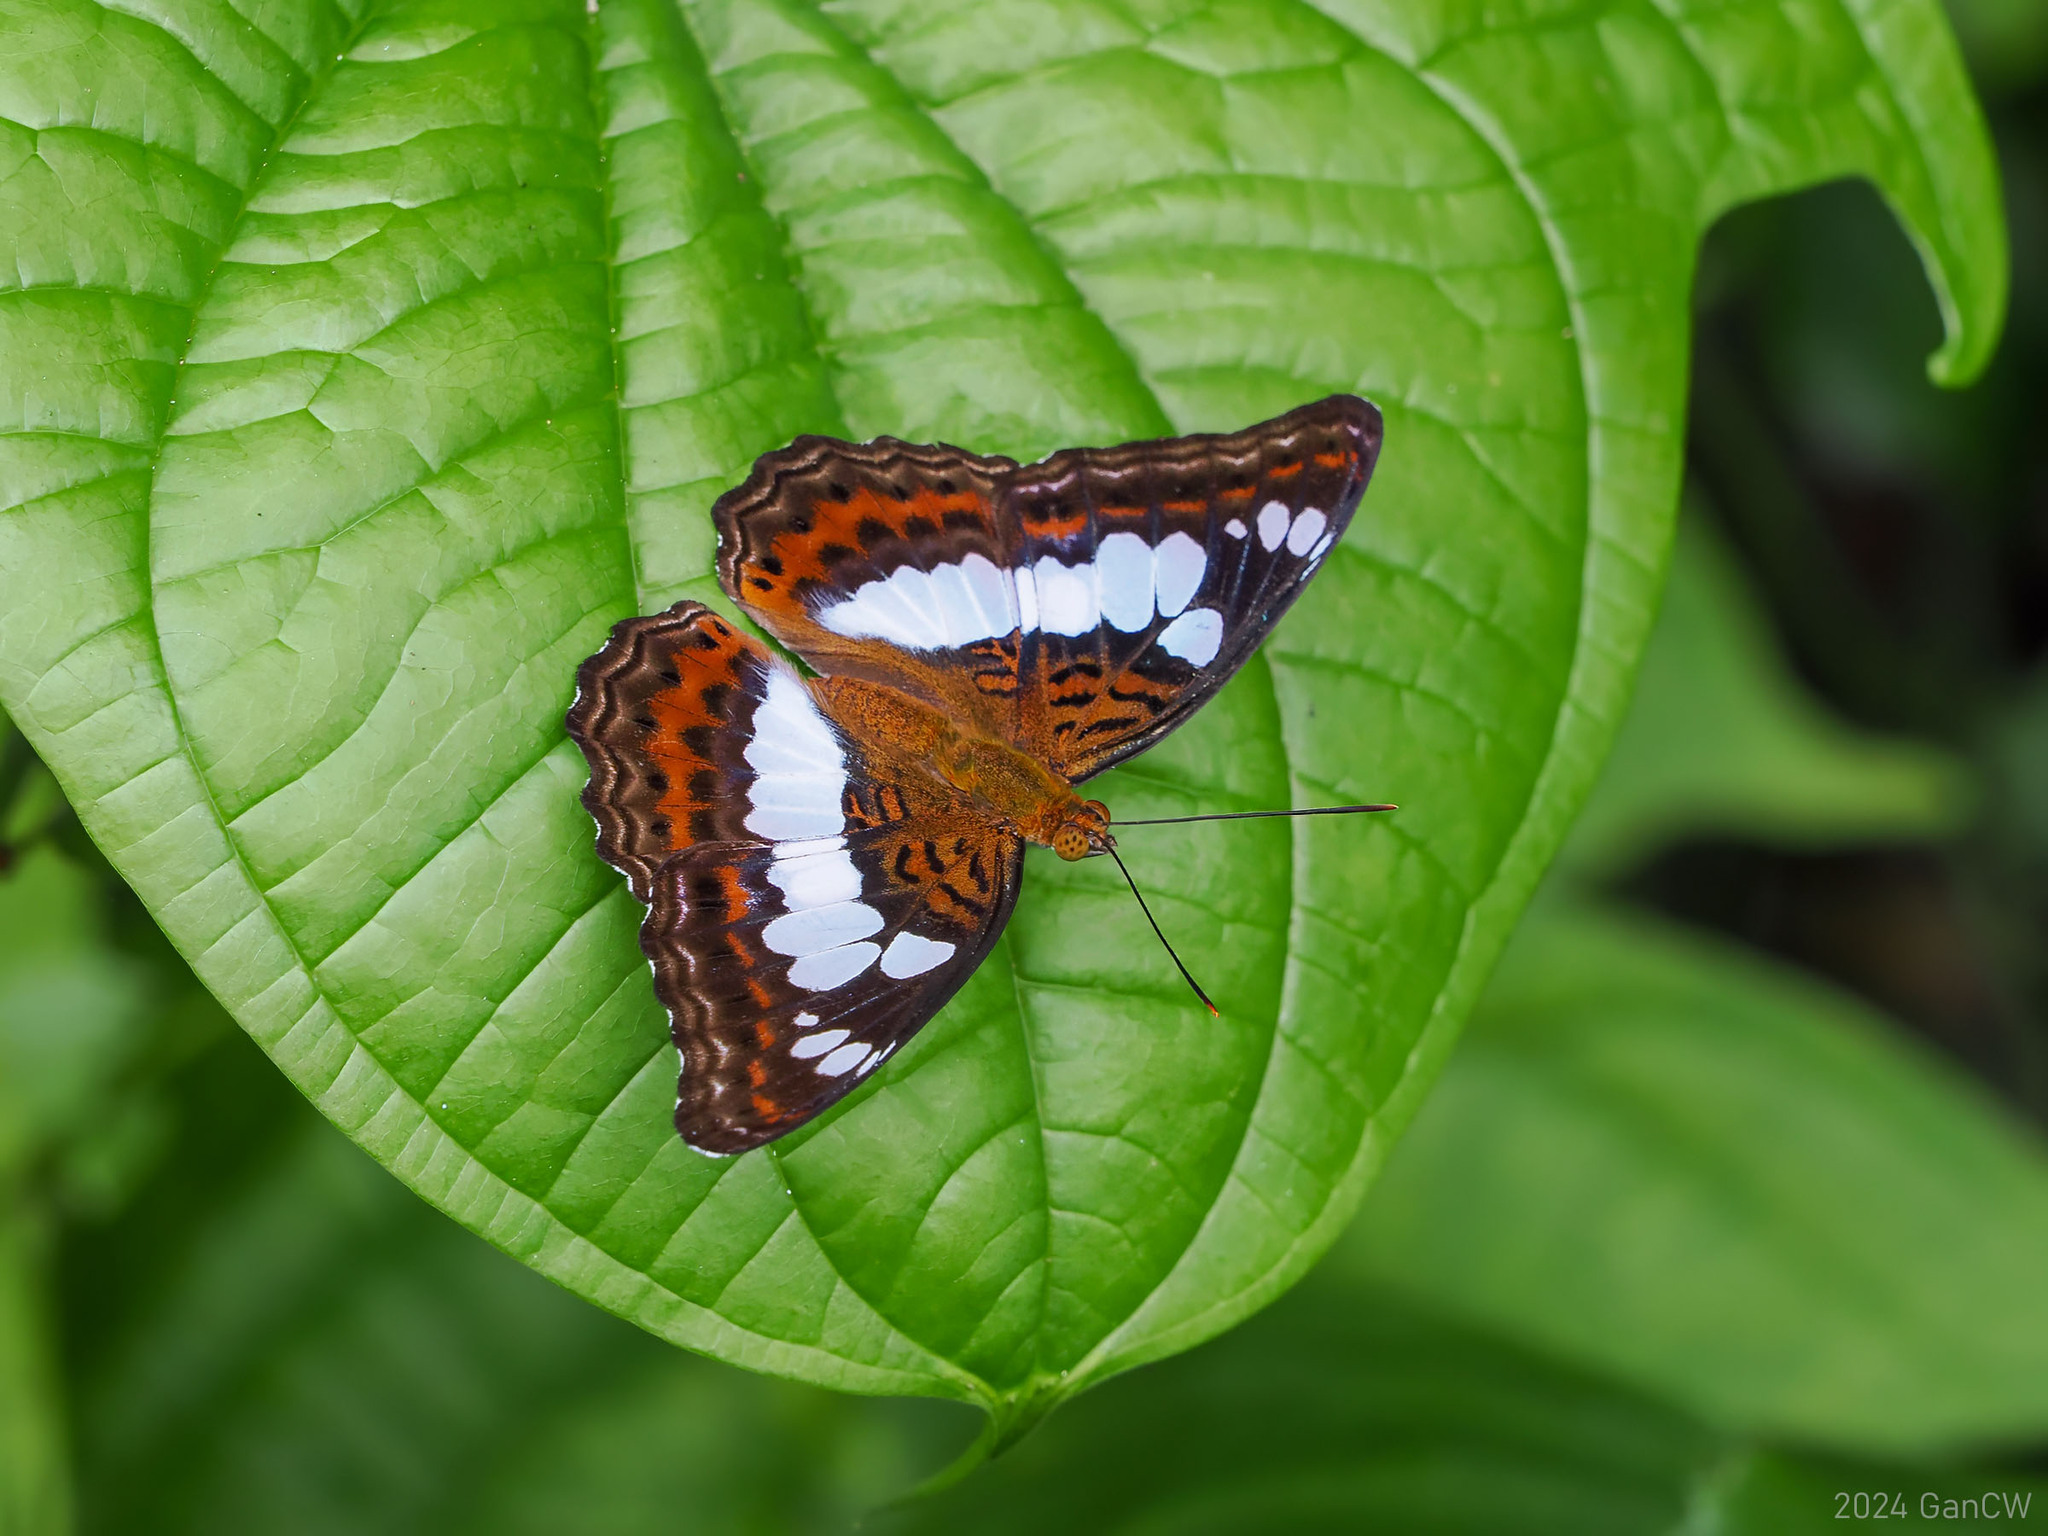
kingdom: Animalia
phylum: Arthropoda
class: Insecta
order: Lepidoptera
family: Nymphalidae
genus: Limenitis
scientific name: Limenitis Moduza procris
